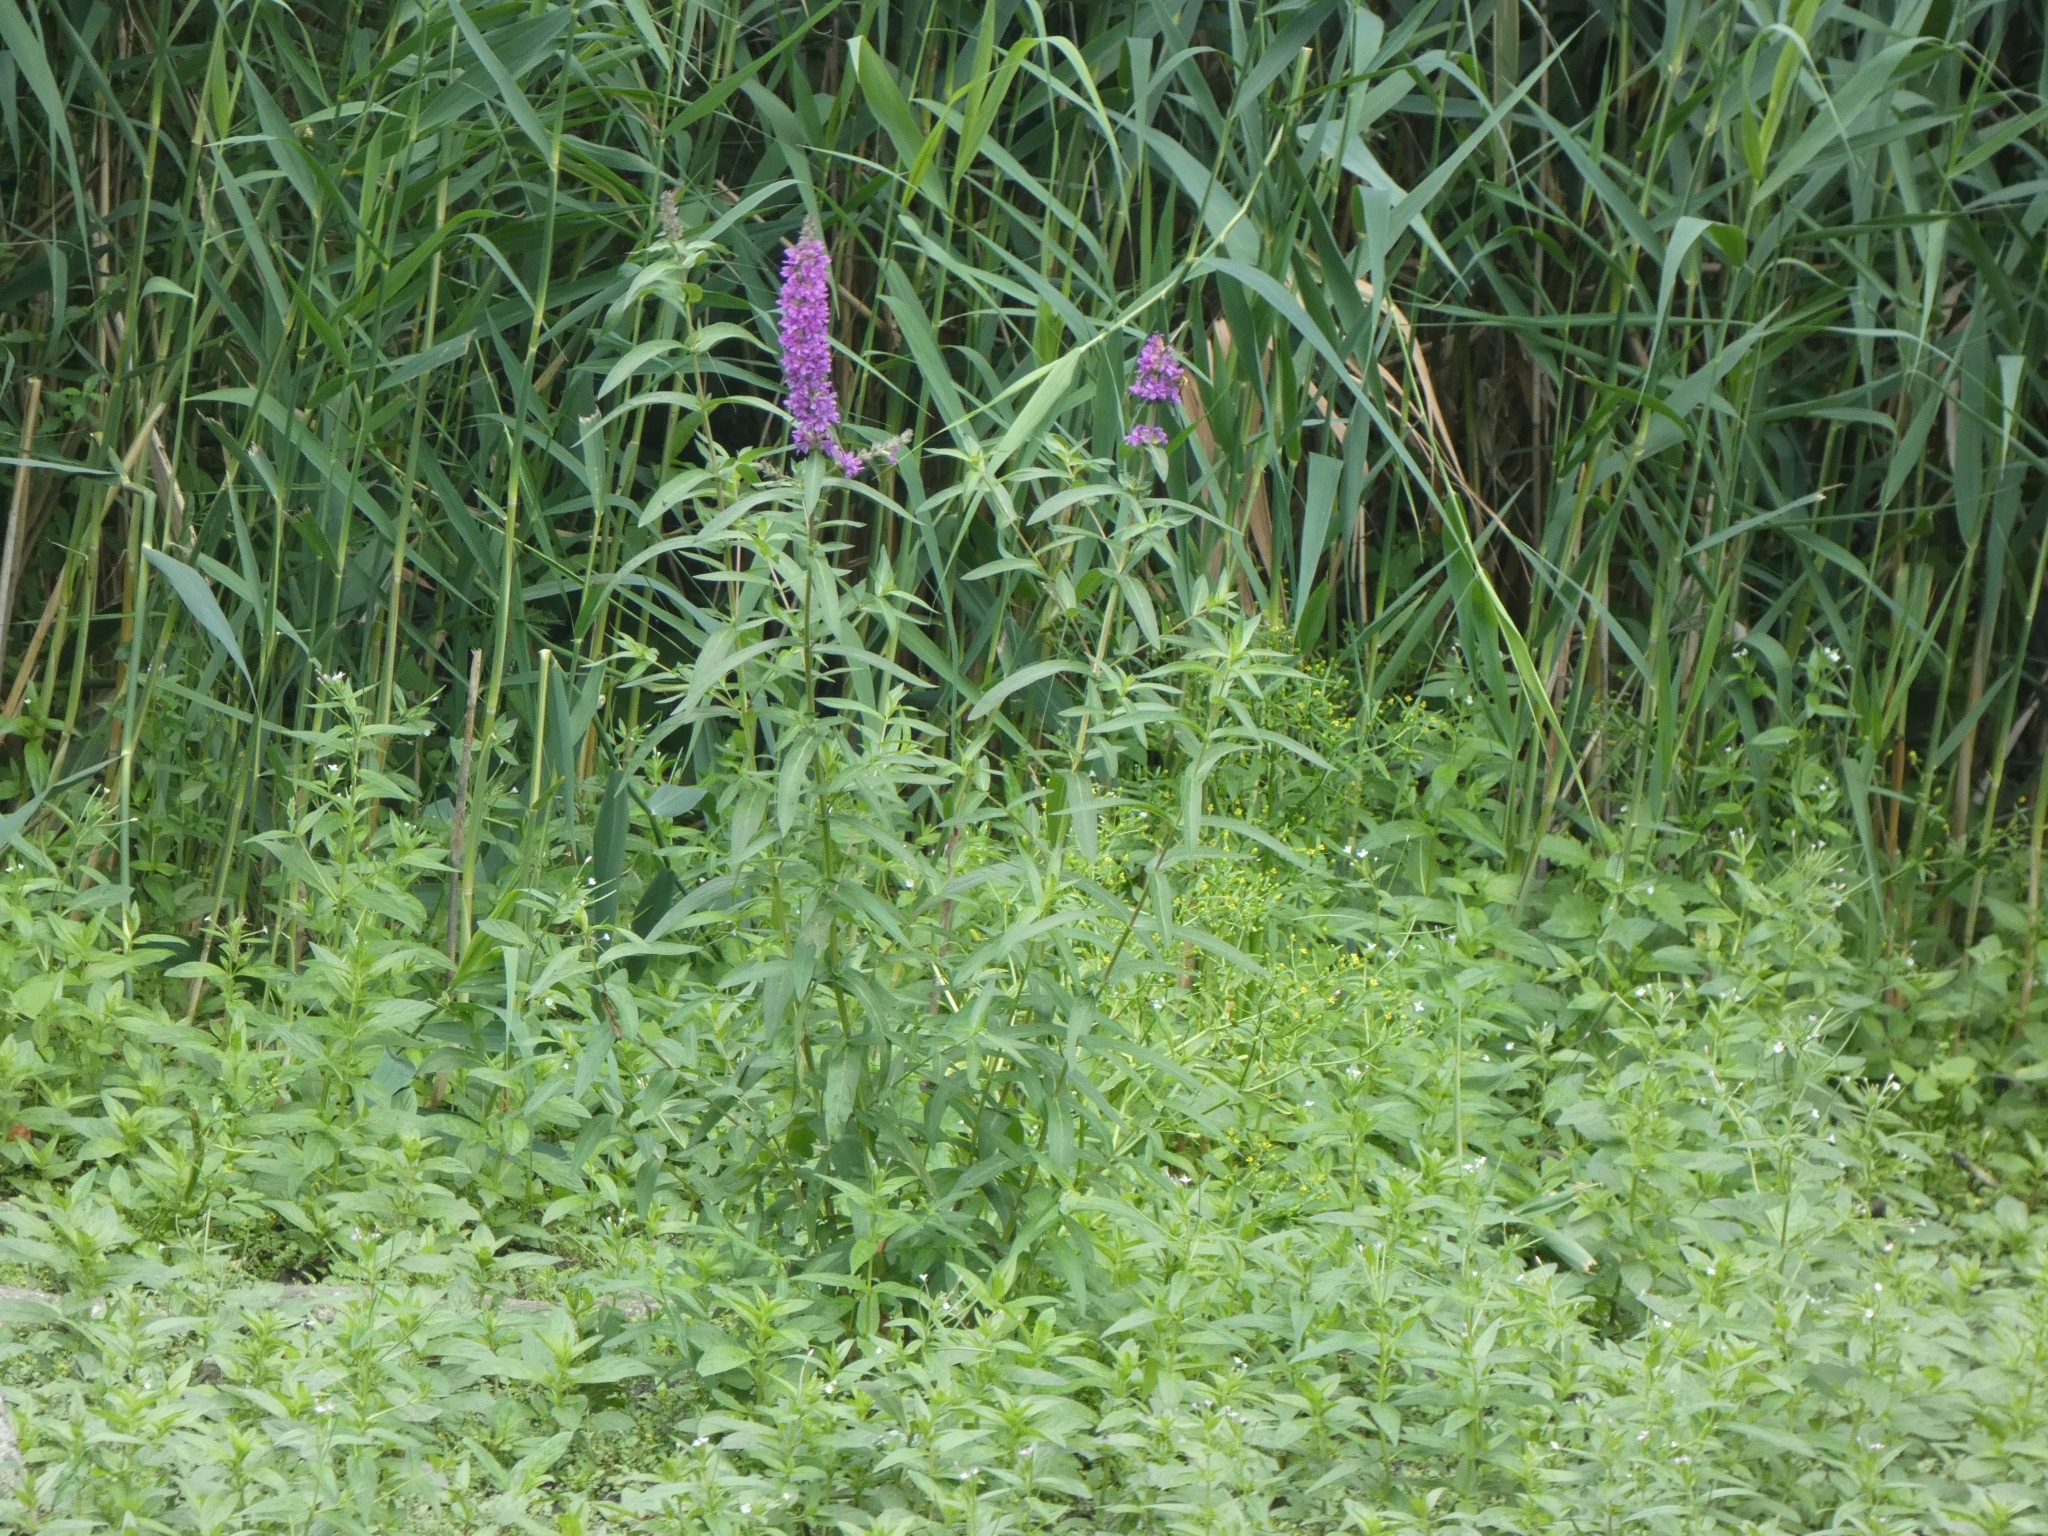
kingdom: Plantae
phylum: Tracheophyta
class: Magnoliopsida
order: Myrtales
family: Lythraceae
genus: Lythrum
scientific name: Lythrum salicaria
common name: Purple loosestrife
